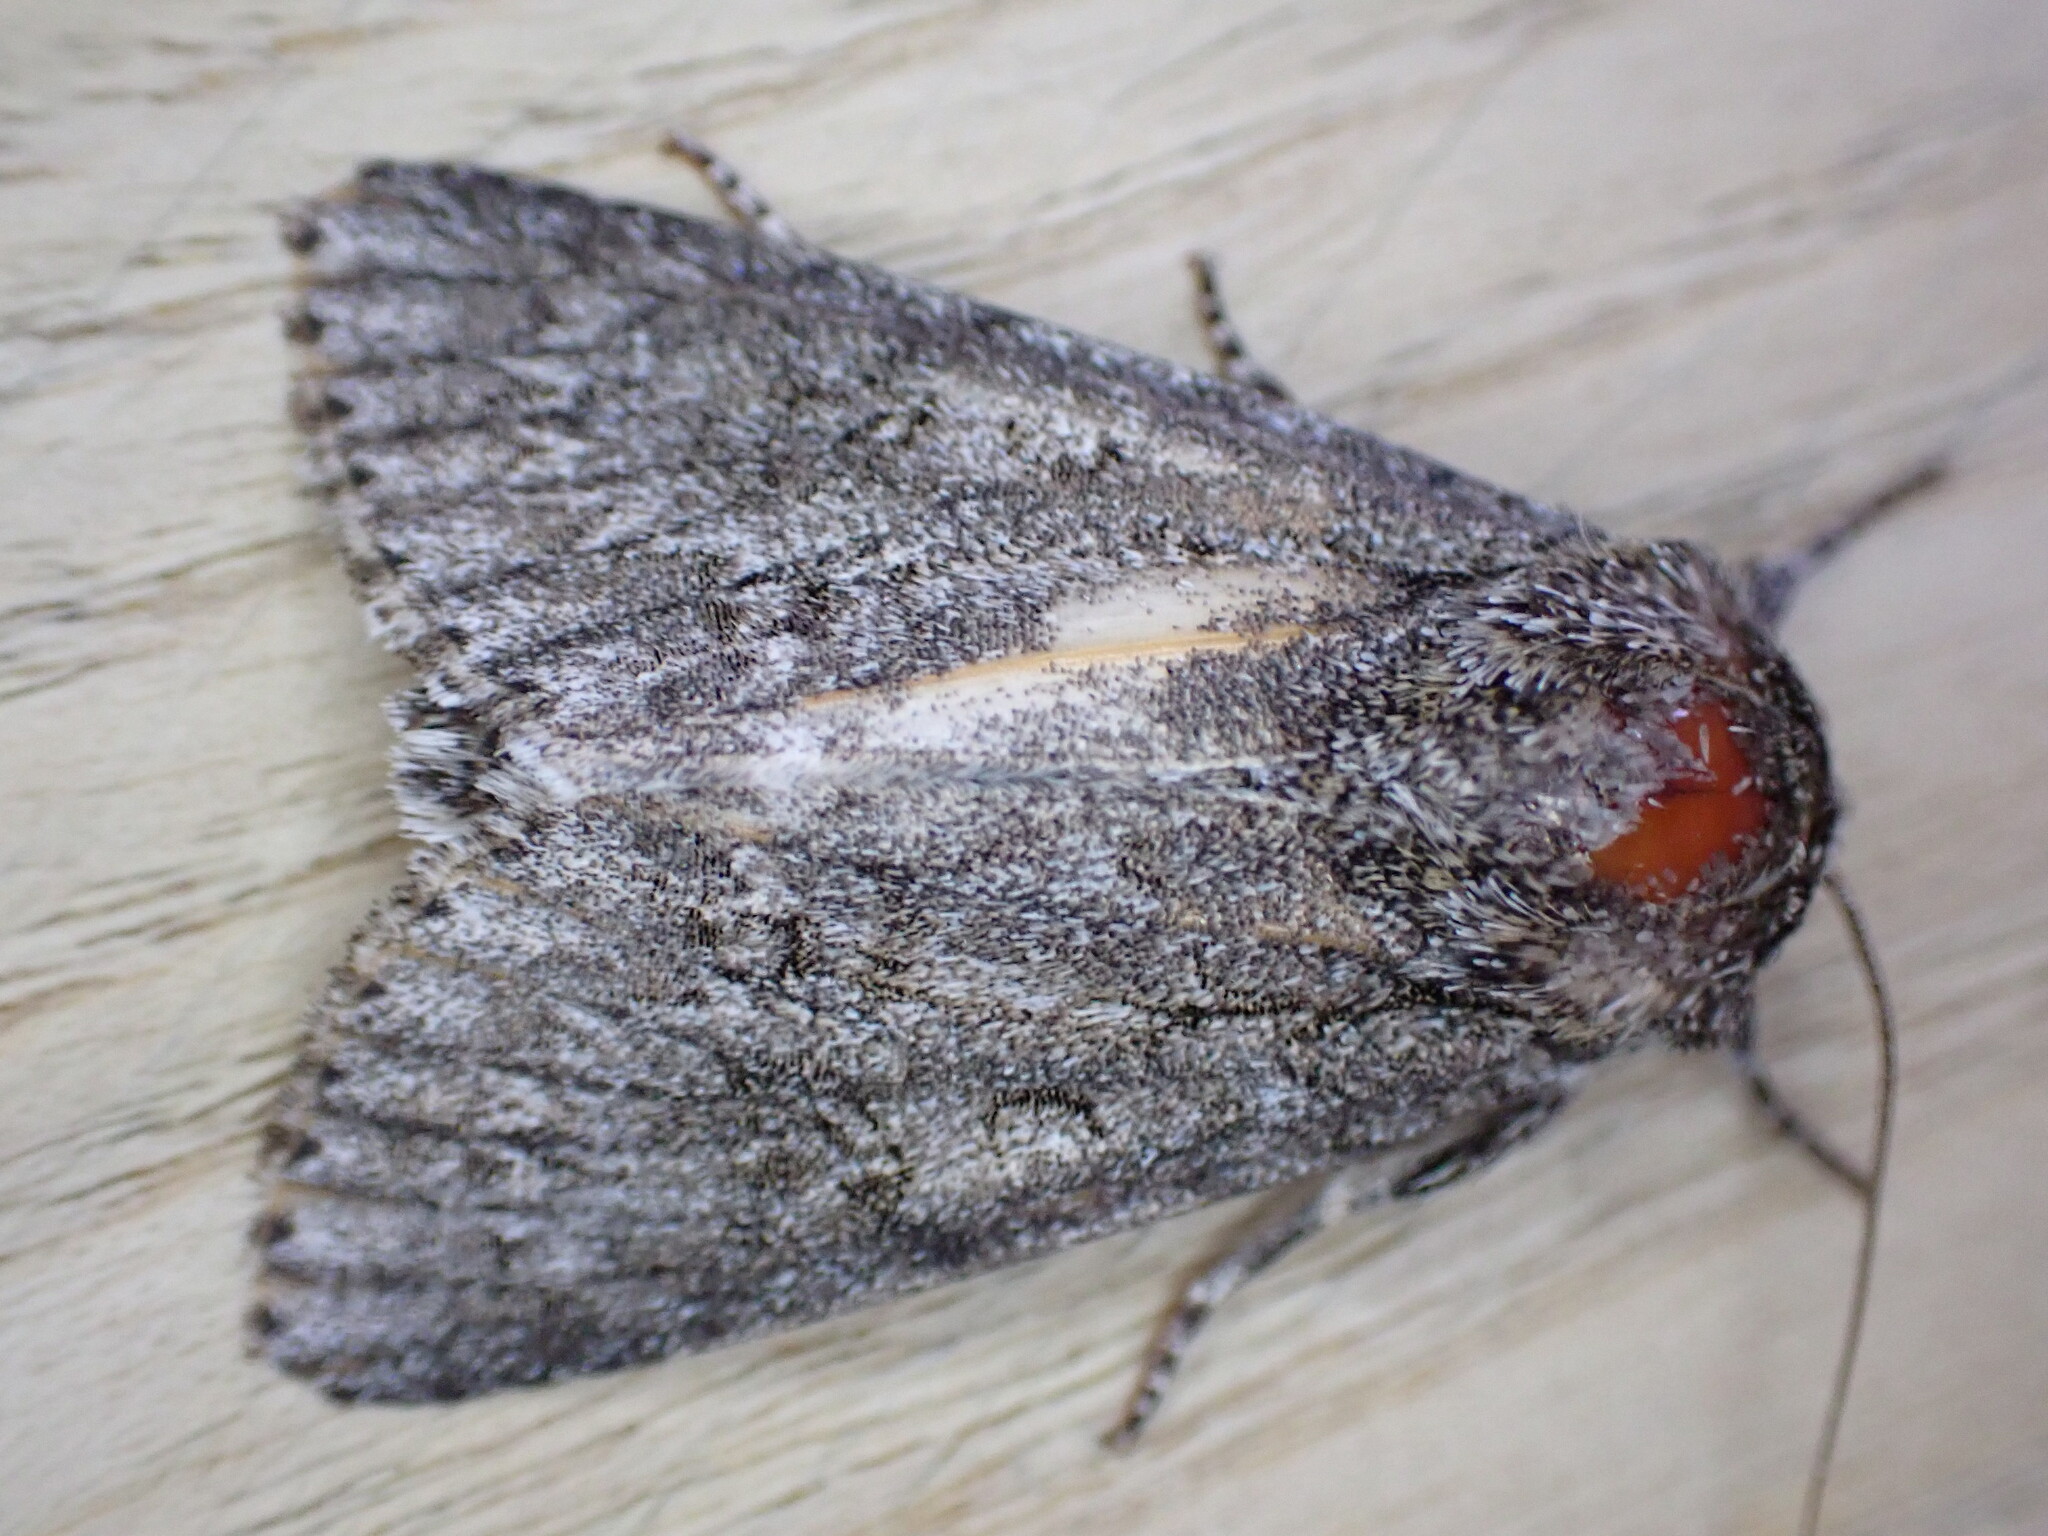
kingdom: Animalia
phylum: Arthropoda
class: Insecta
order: Lepidoptera
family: Noctuidae
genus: Acronicta
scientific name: Acronicta megacephala
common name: Poplar grey
